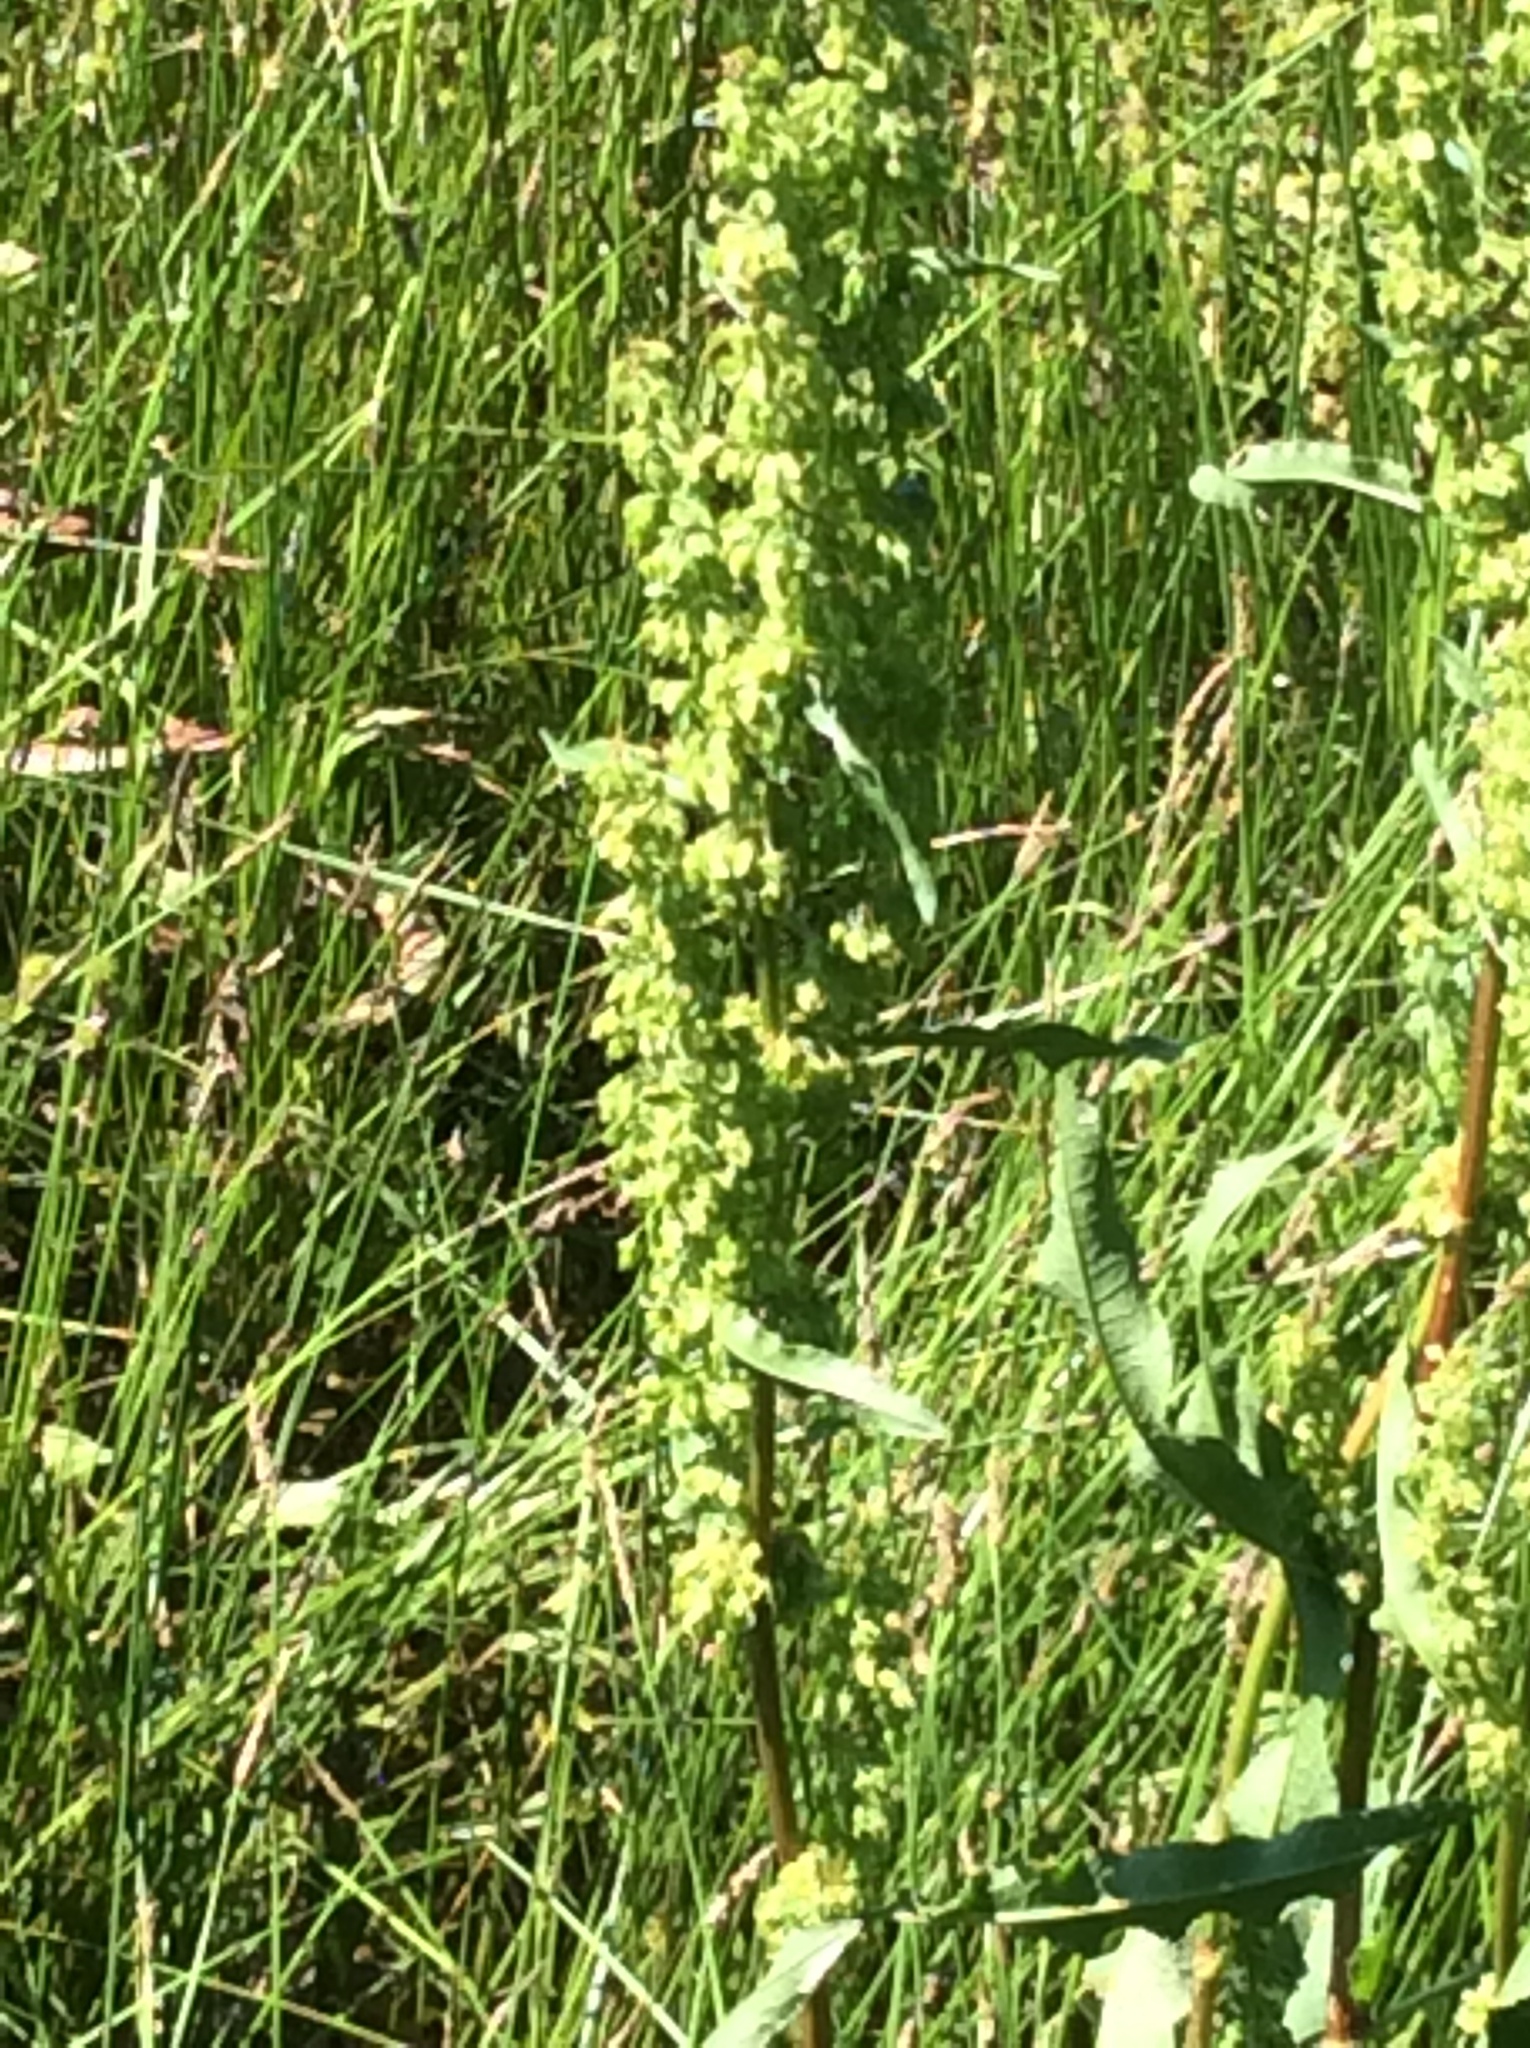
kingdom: Plantae
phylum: Tracheophyta
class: Magnoliopsida
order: Caryophyllales
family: Polygonaceae
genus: Rumex
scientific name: Rumex crispus
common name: Curled dock
